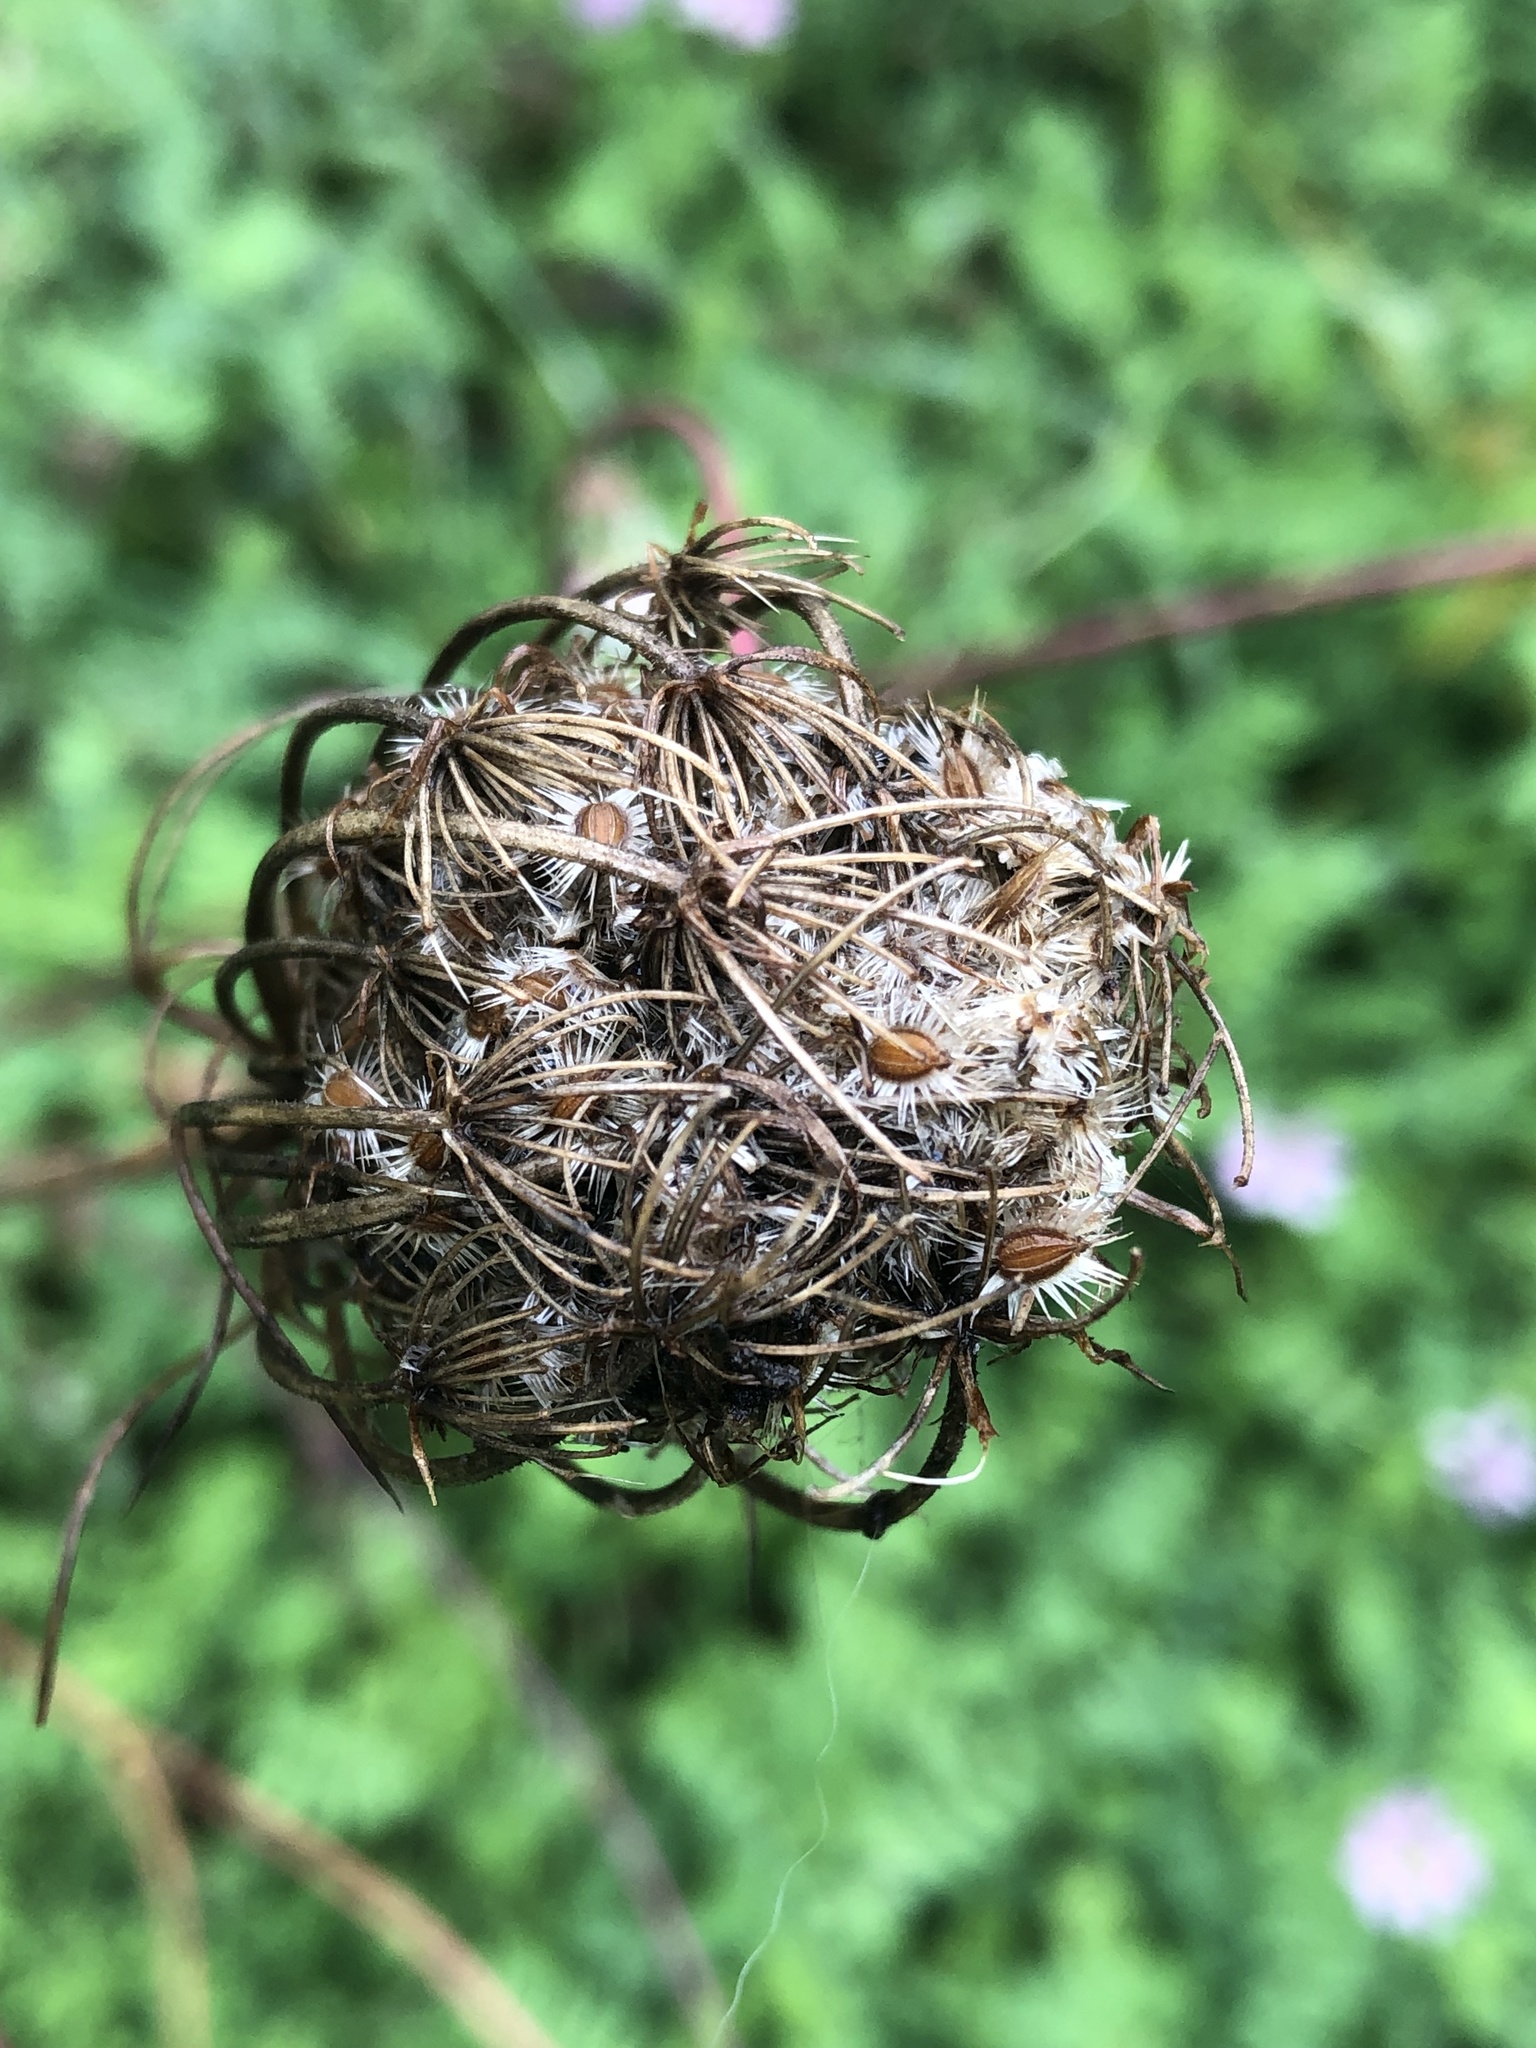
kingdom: Plantae
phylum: Tracheophyta
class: Magnoliopsida
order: Apiales
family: Apiaceae
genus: Daucus
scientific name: Daucus carota
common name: Wild carrot
